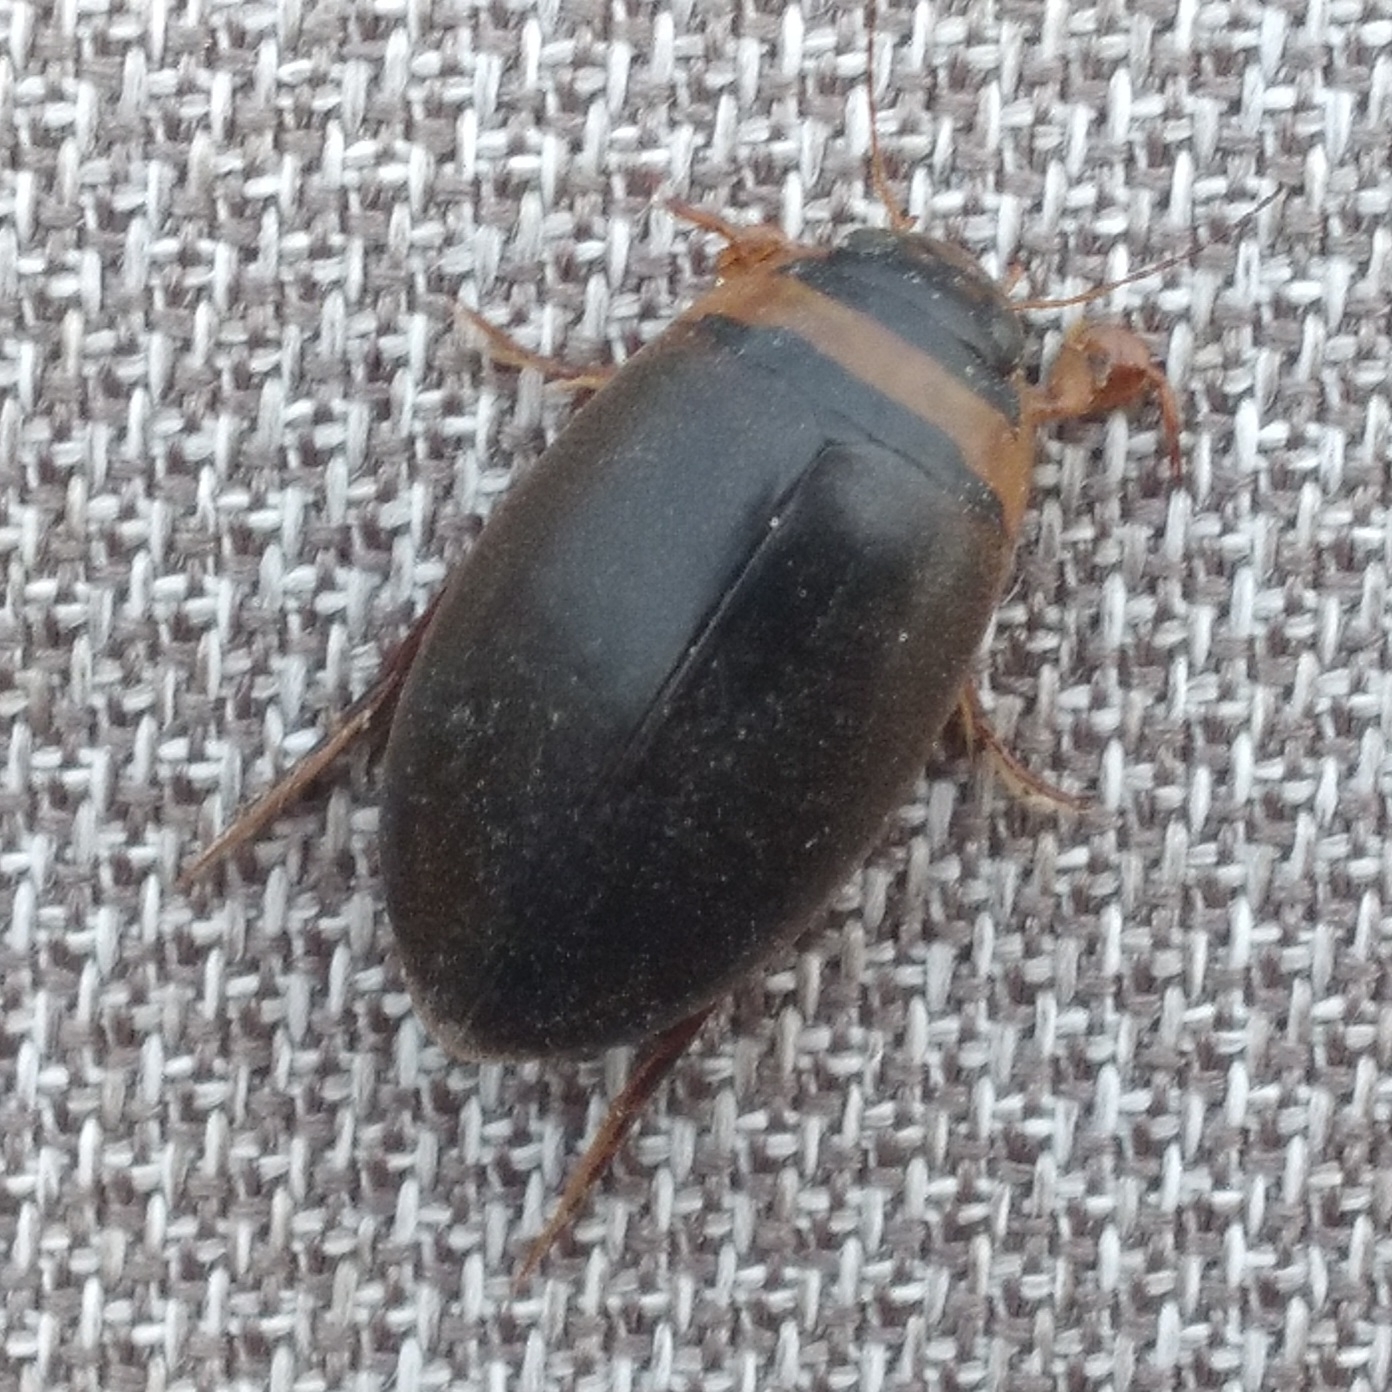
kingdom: Animalia
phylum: Arthropoda
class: Insecta
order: Coleoptera
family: Dytiscidae
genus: Graphoderus
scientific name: Graphoderus
